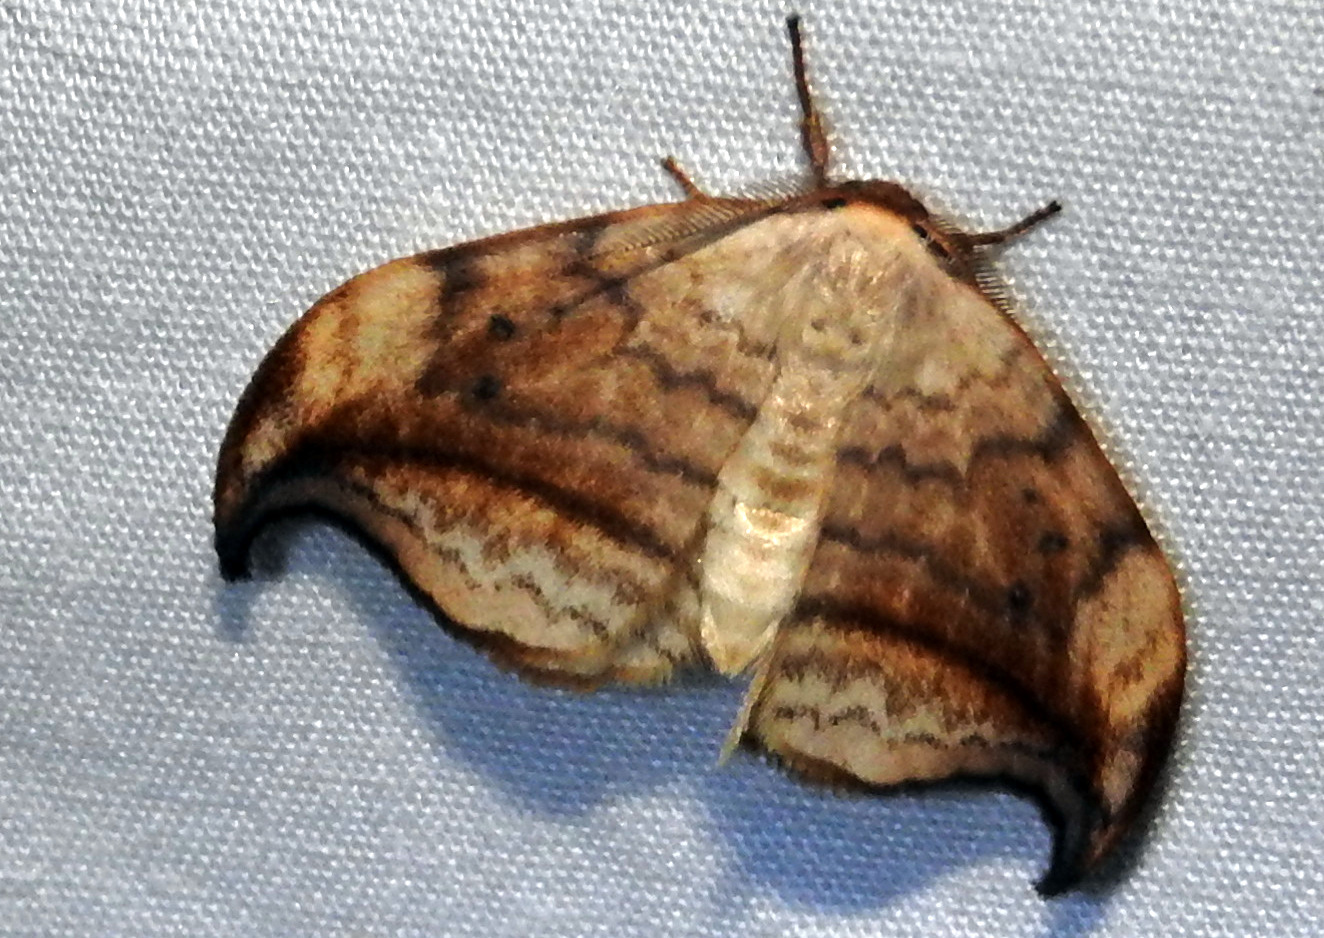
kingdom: Animalia
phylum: Arthropoda
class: Insecta
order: Lepidoptera
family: Drepanidae
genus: Drepana
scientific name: Drepana arcuata
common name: Arched hooktip moth
